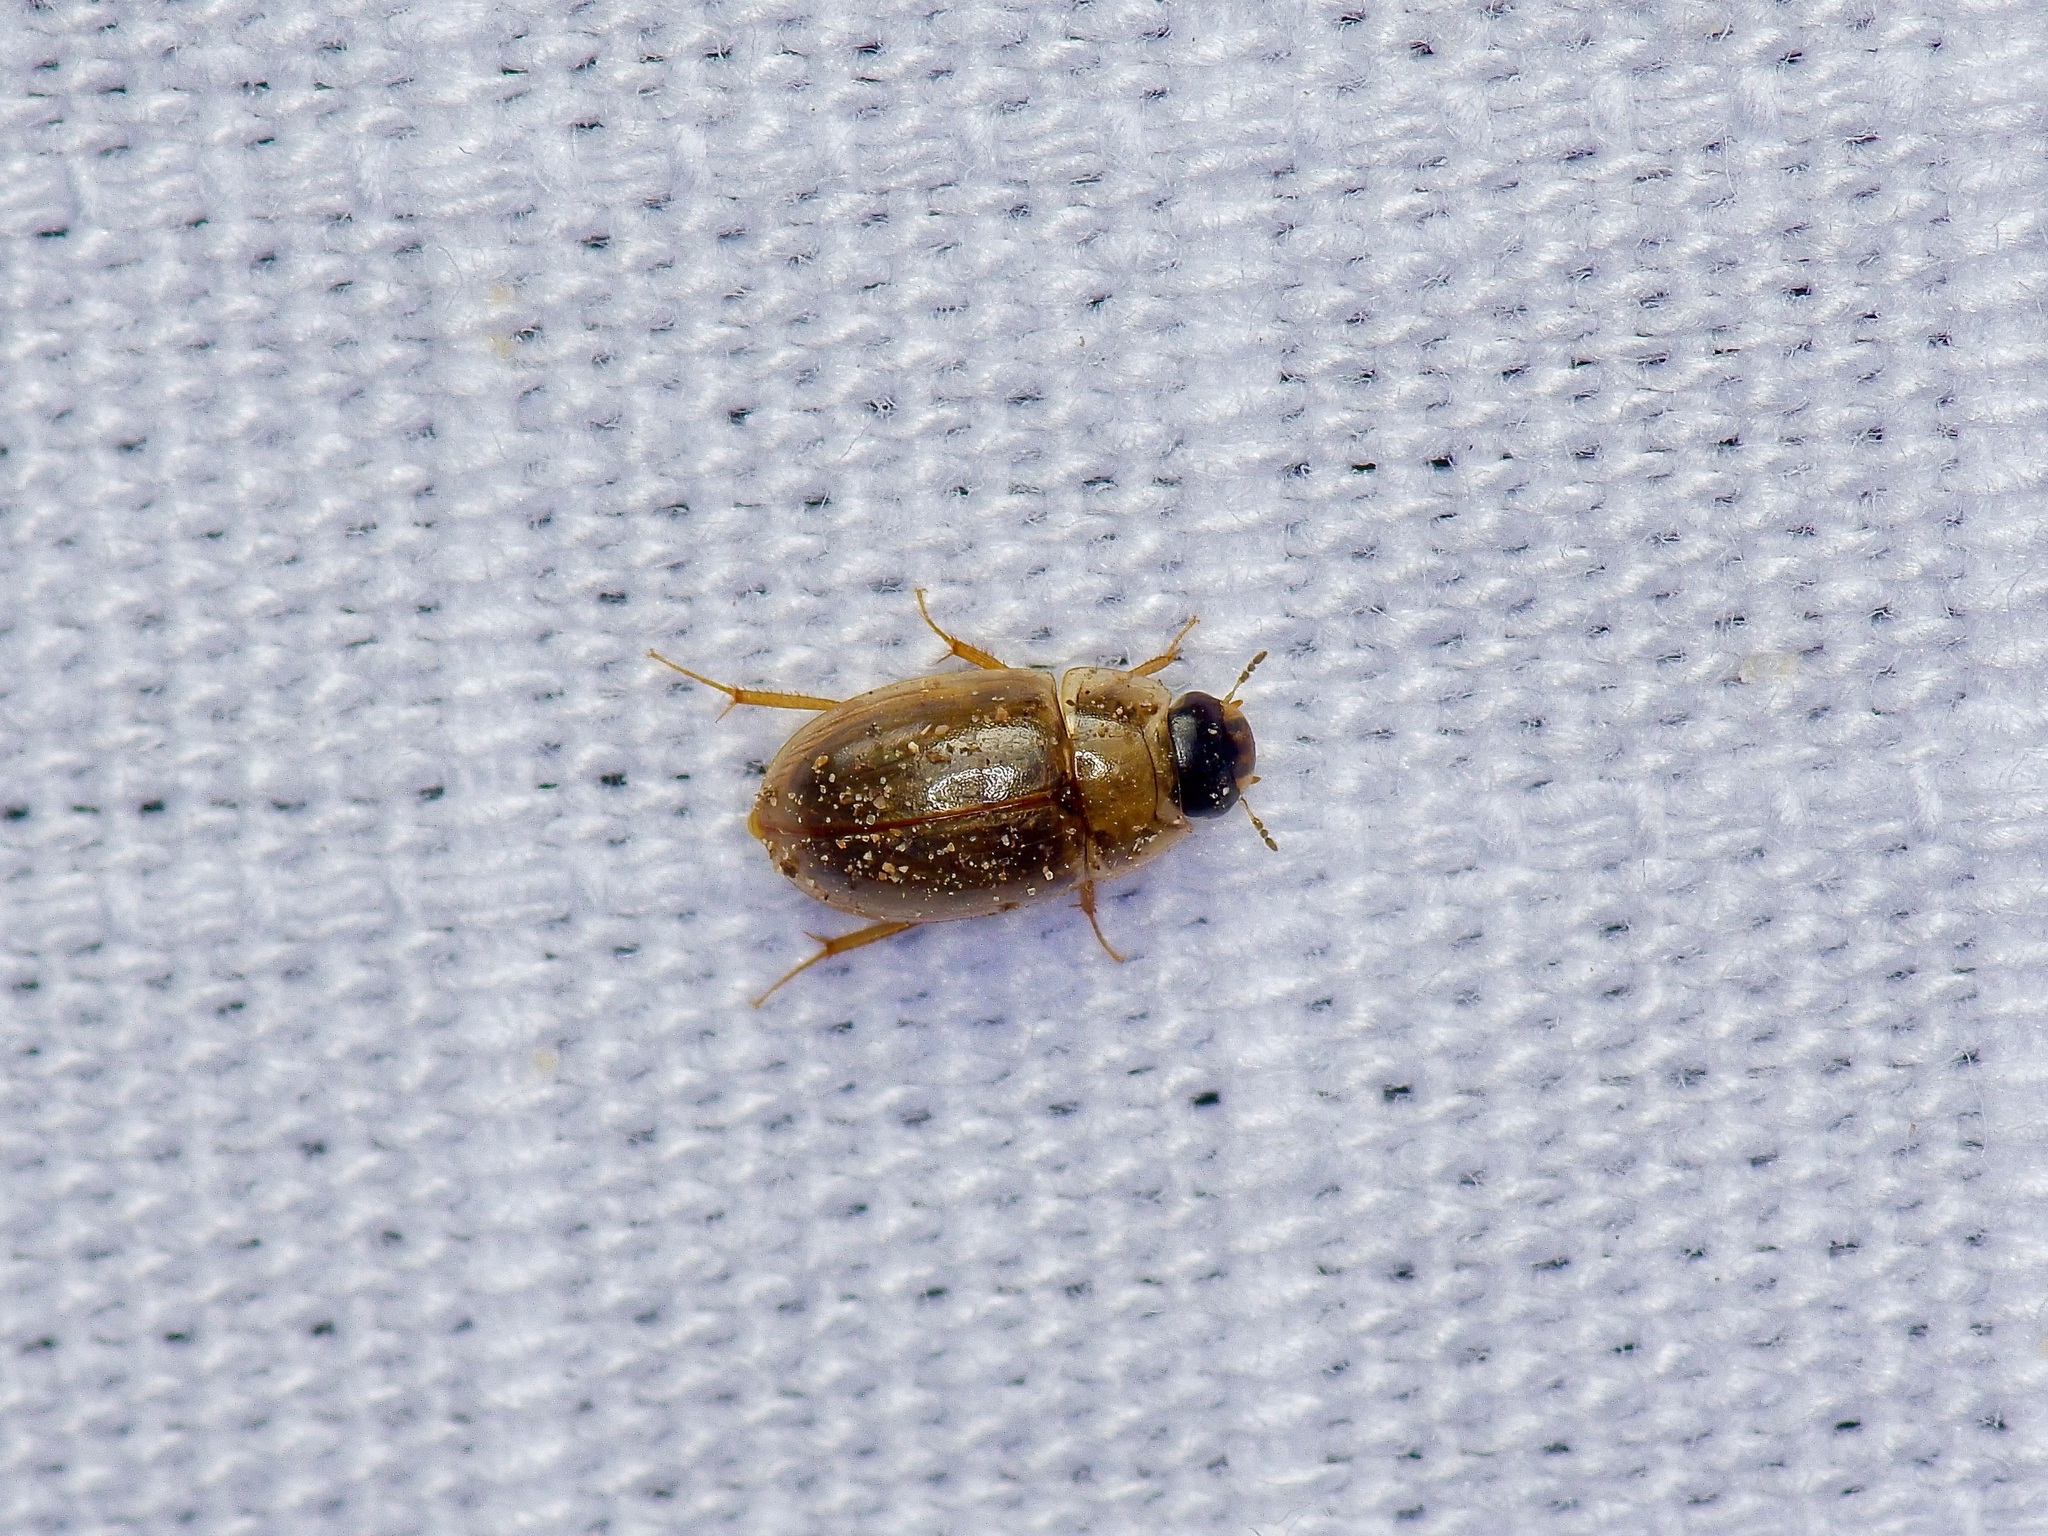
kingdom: Animalia
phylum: Arthropoda
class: Insecta
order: Coleoptera
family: Hydrophilidae
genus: Enochrus
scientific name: Enochrus
